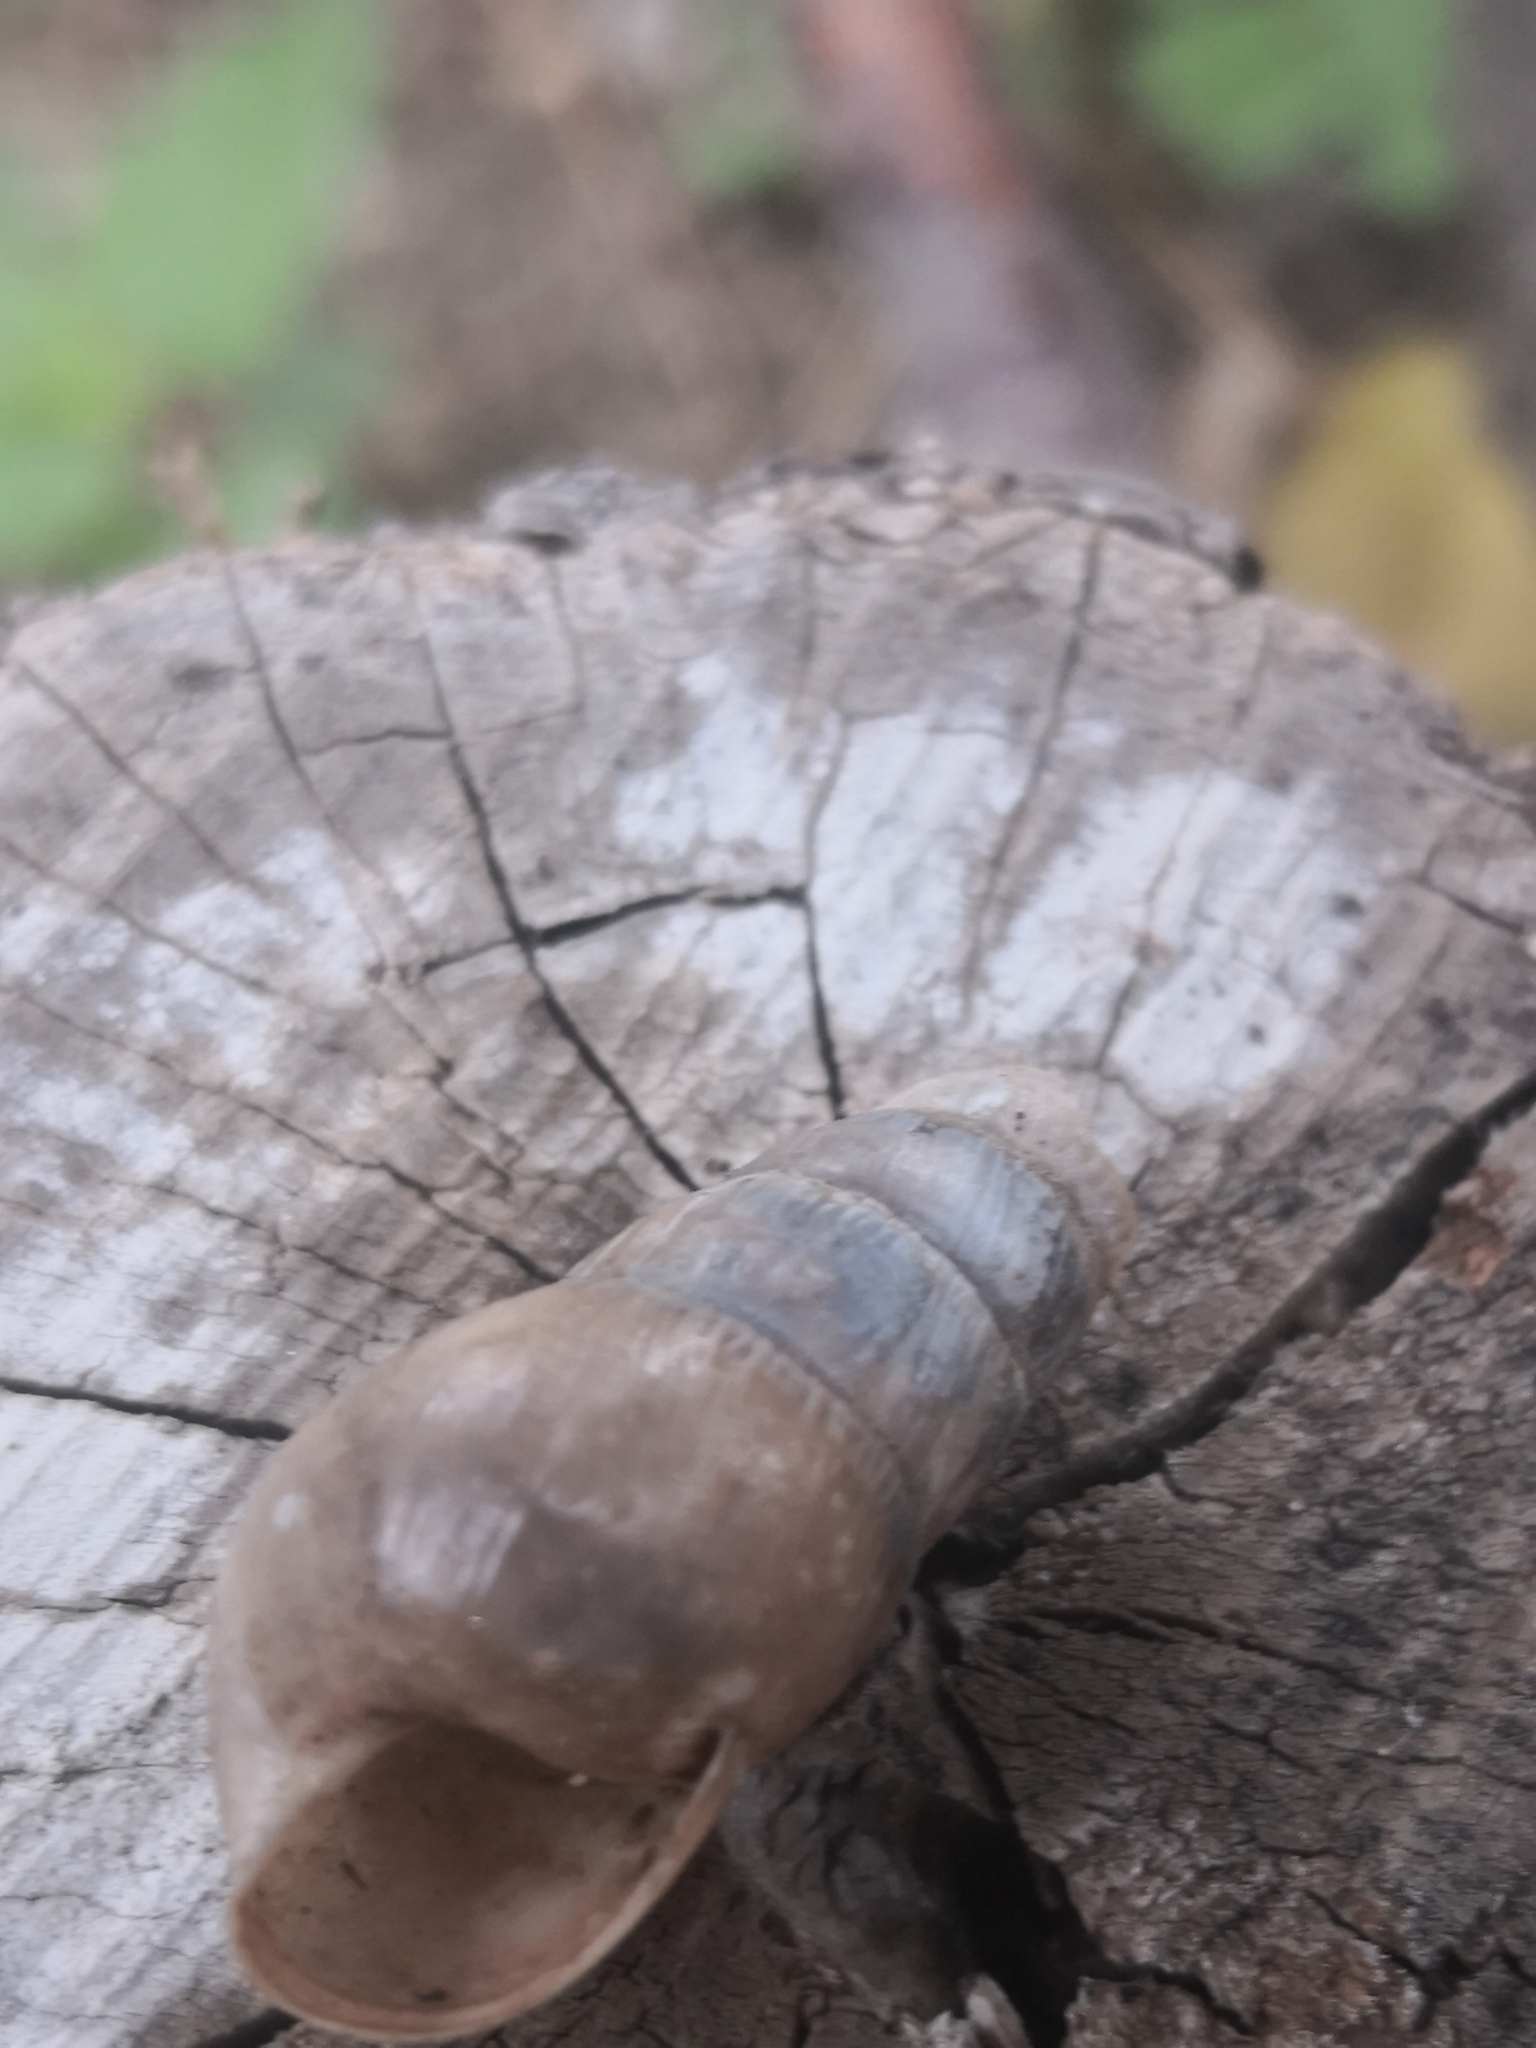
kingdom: Animalia
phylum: Mollusca
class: Gastropoda
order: Stylommatophora
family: Achatinidae
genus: Rumina
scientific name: Rumina decollata
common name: Decollate snail
